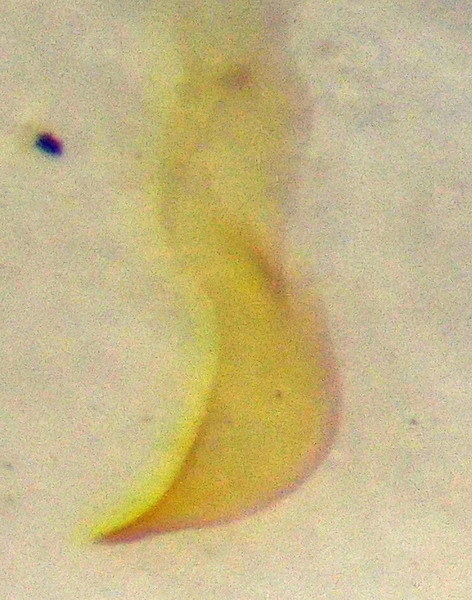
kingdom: Animalia
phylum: Arthropoda
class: Insecta
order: Hemiptera
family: Nabidae
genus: Nabis
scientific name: Nabis pallidus
